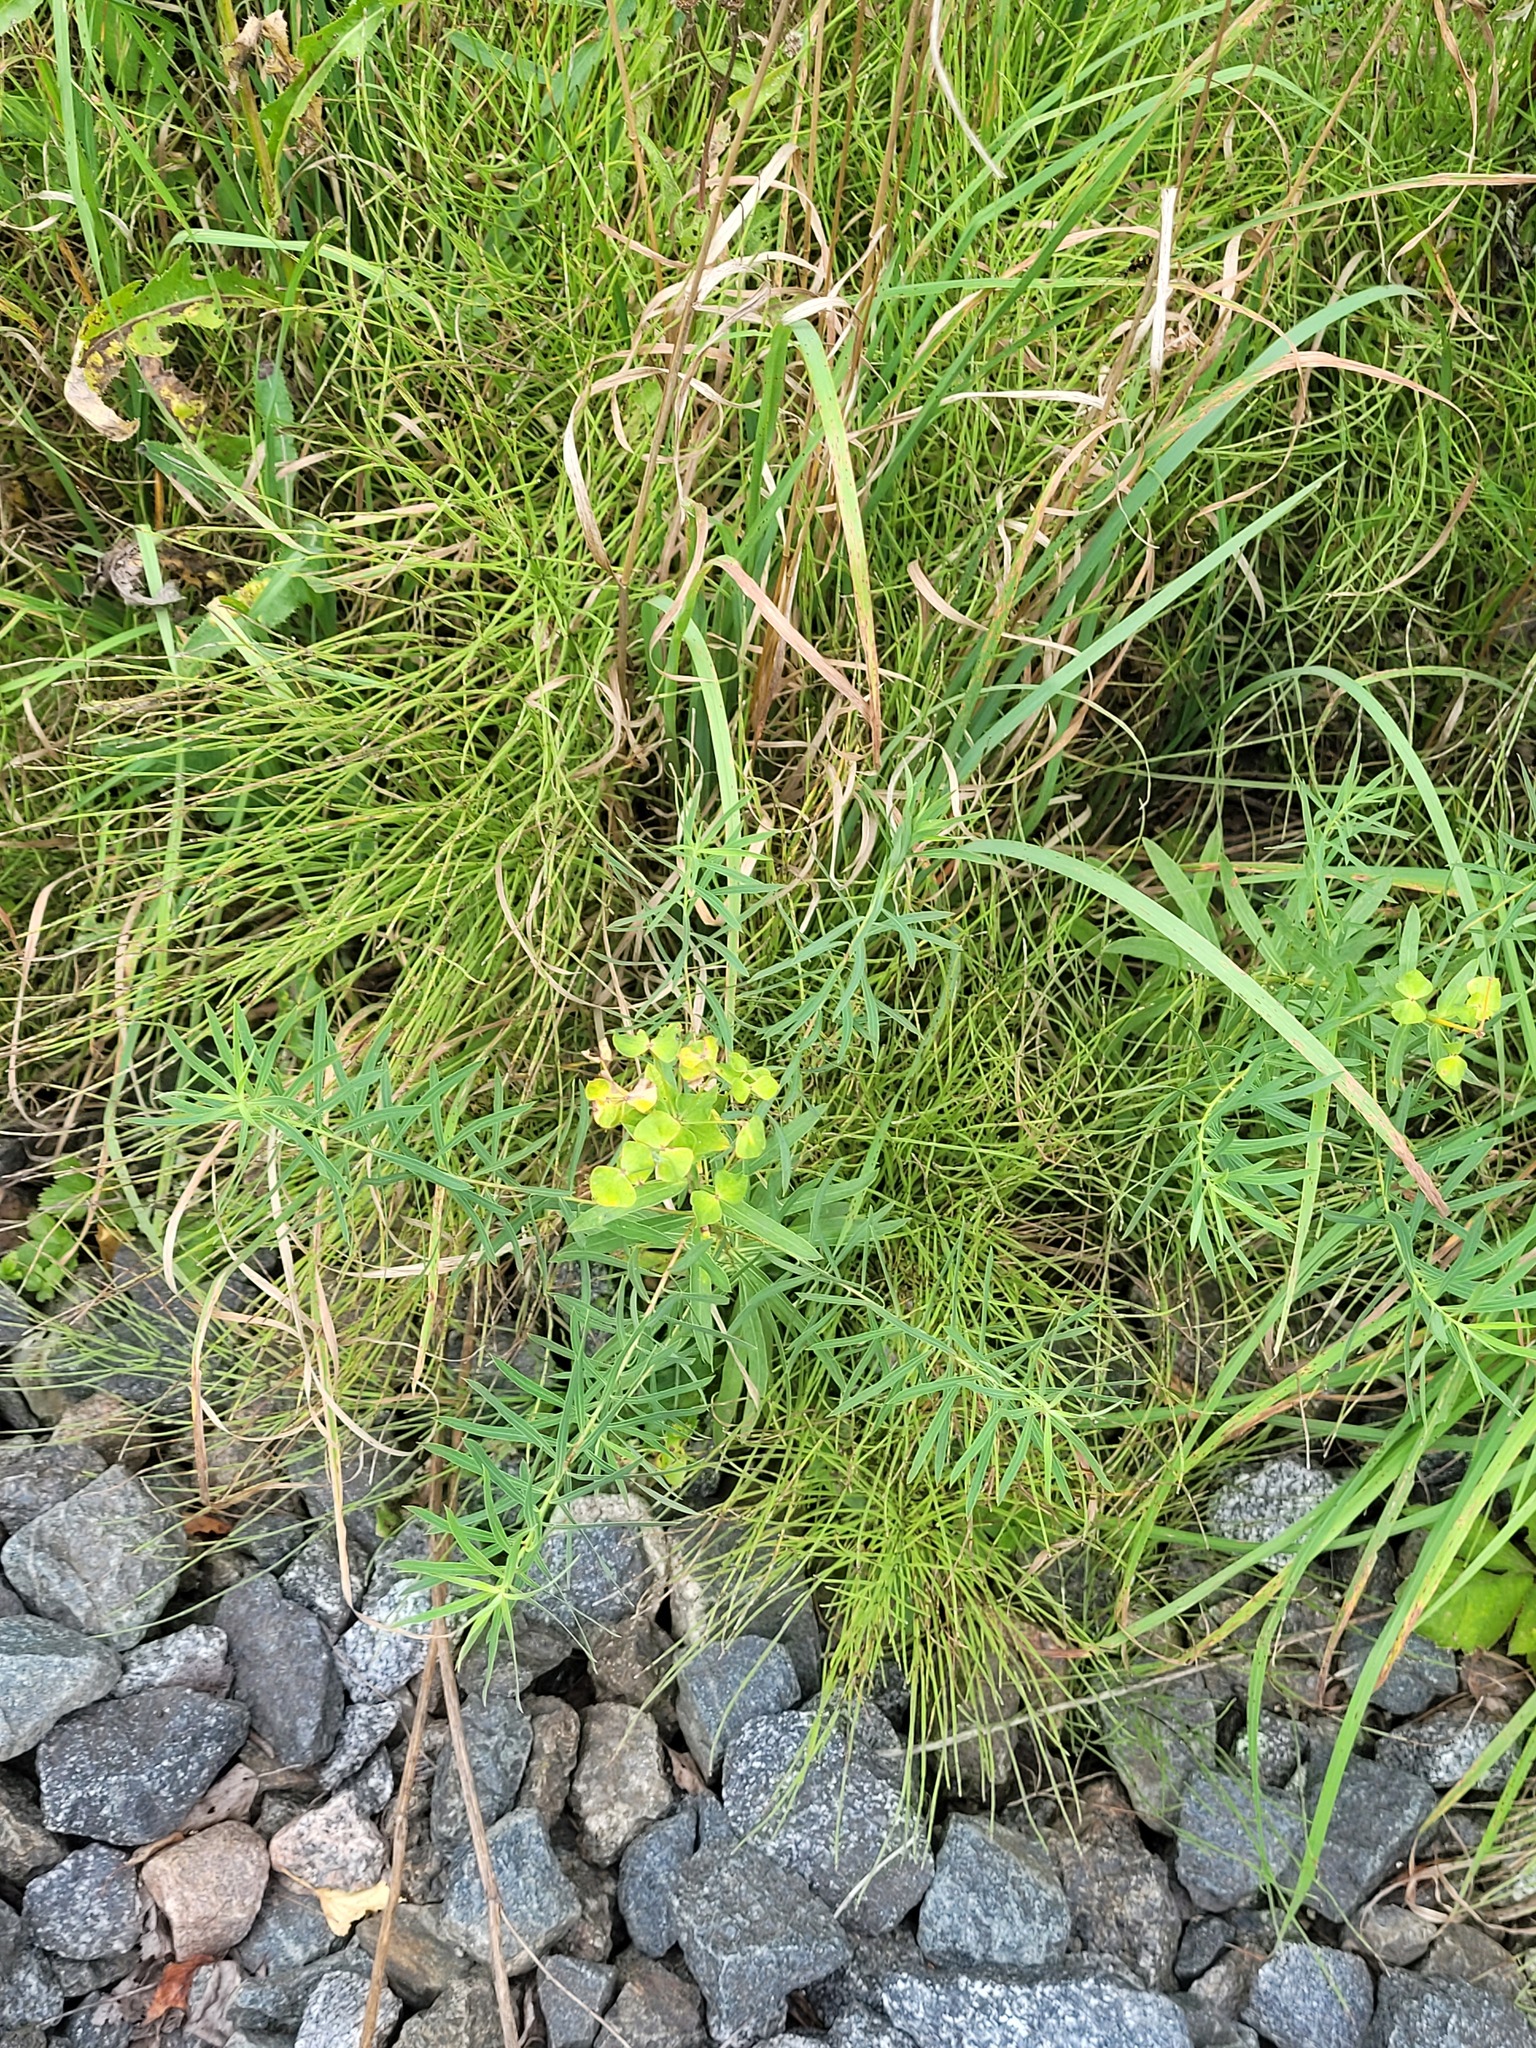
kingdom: Plantae
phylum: Tracheophyta
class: Magnoliopsida
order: Malpighiales
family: Euphorbiaceae
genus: Euphorbia
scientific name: Euphorbia virgata
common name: Leafy spurge
